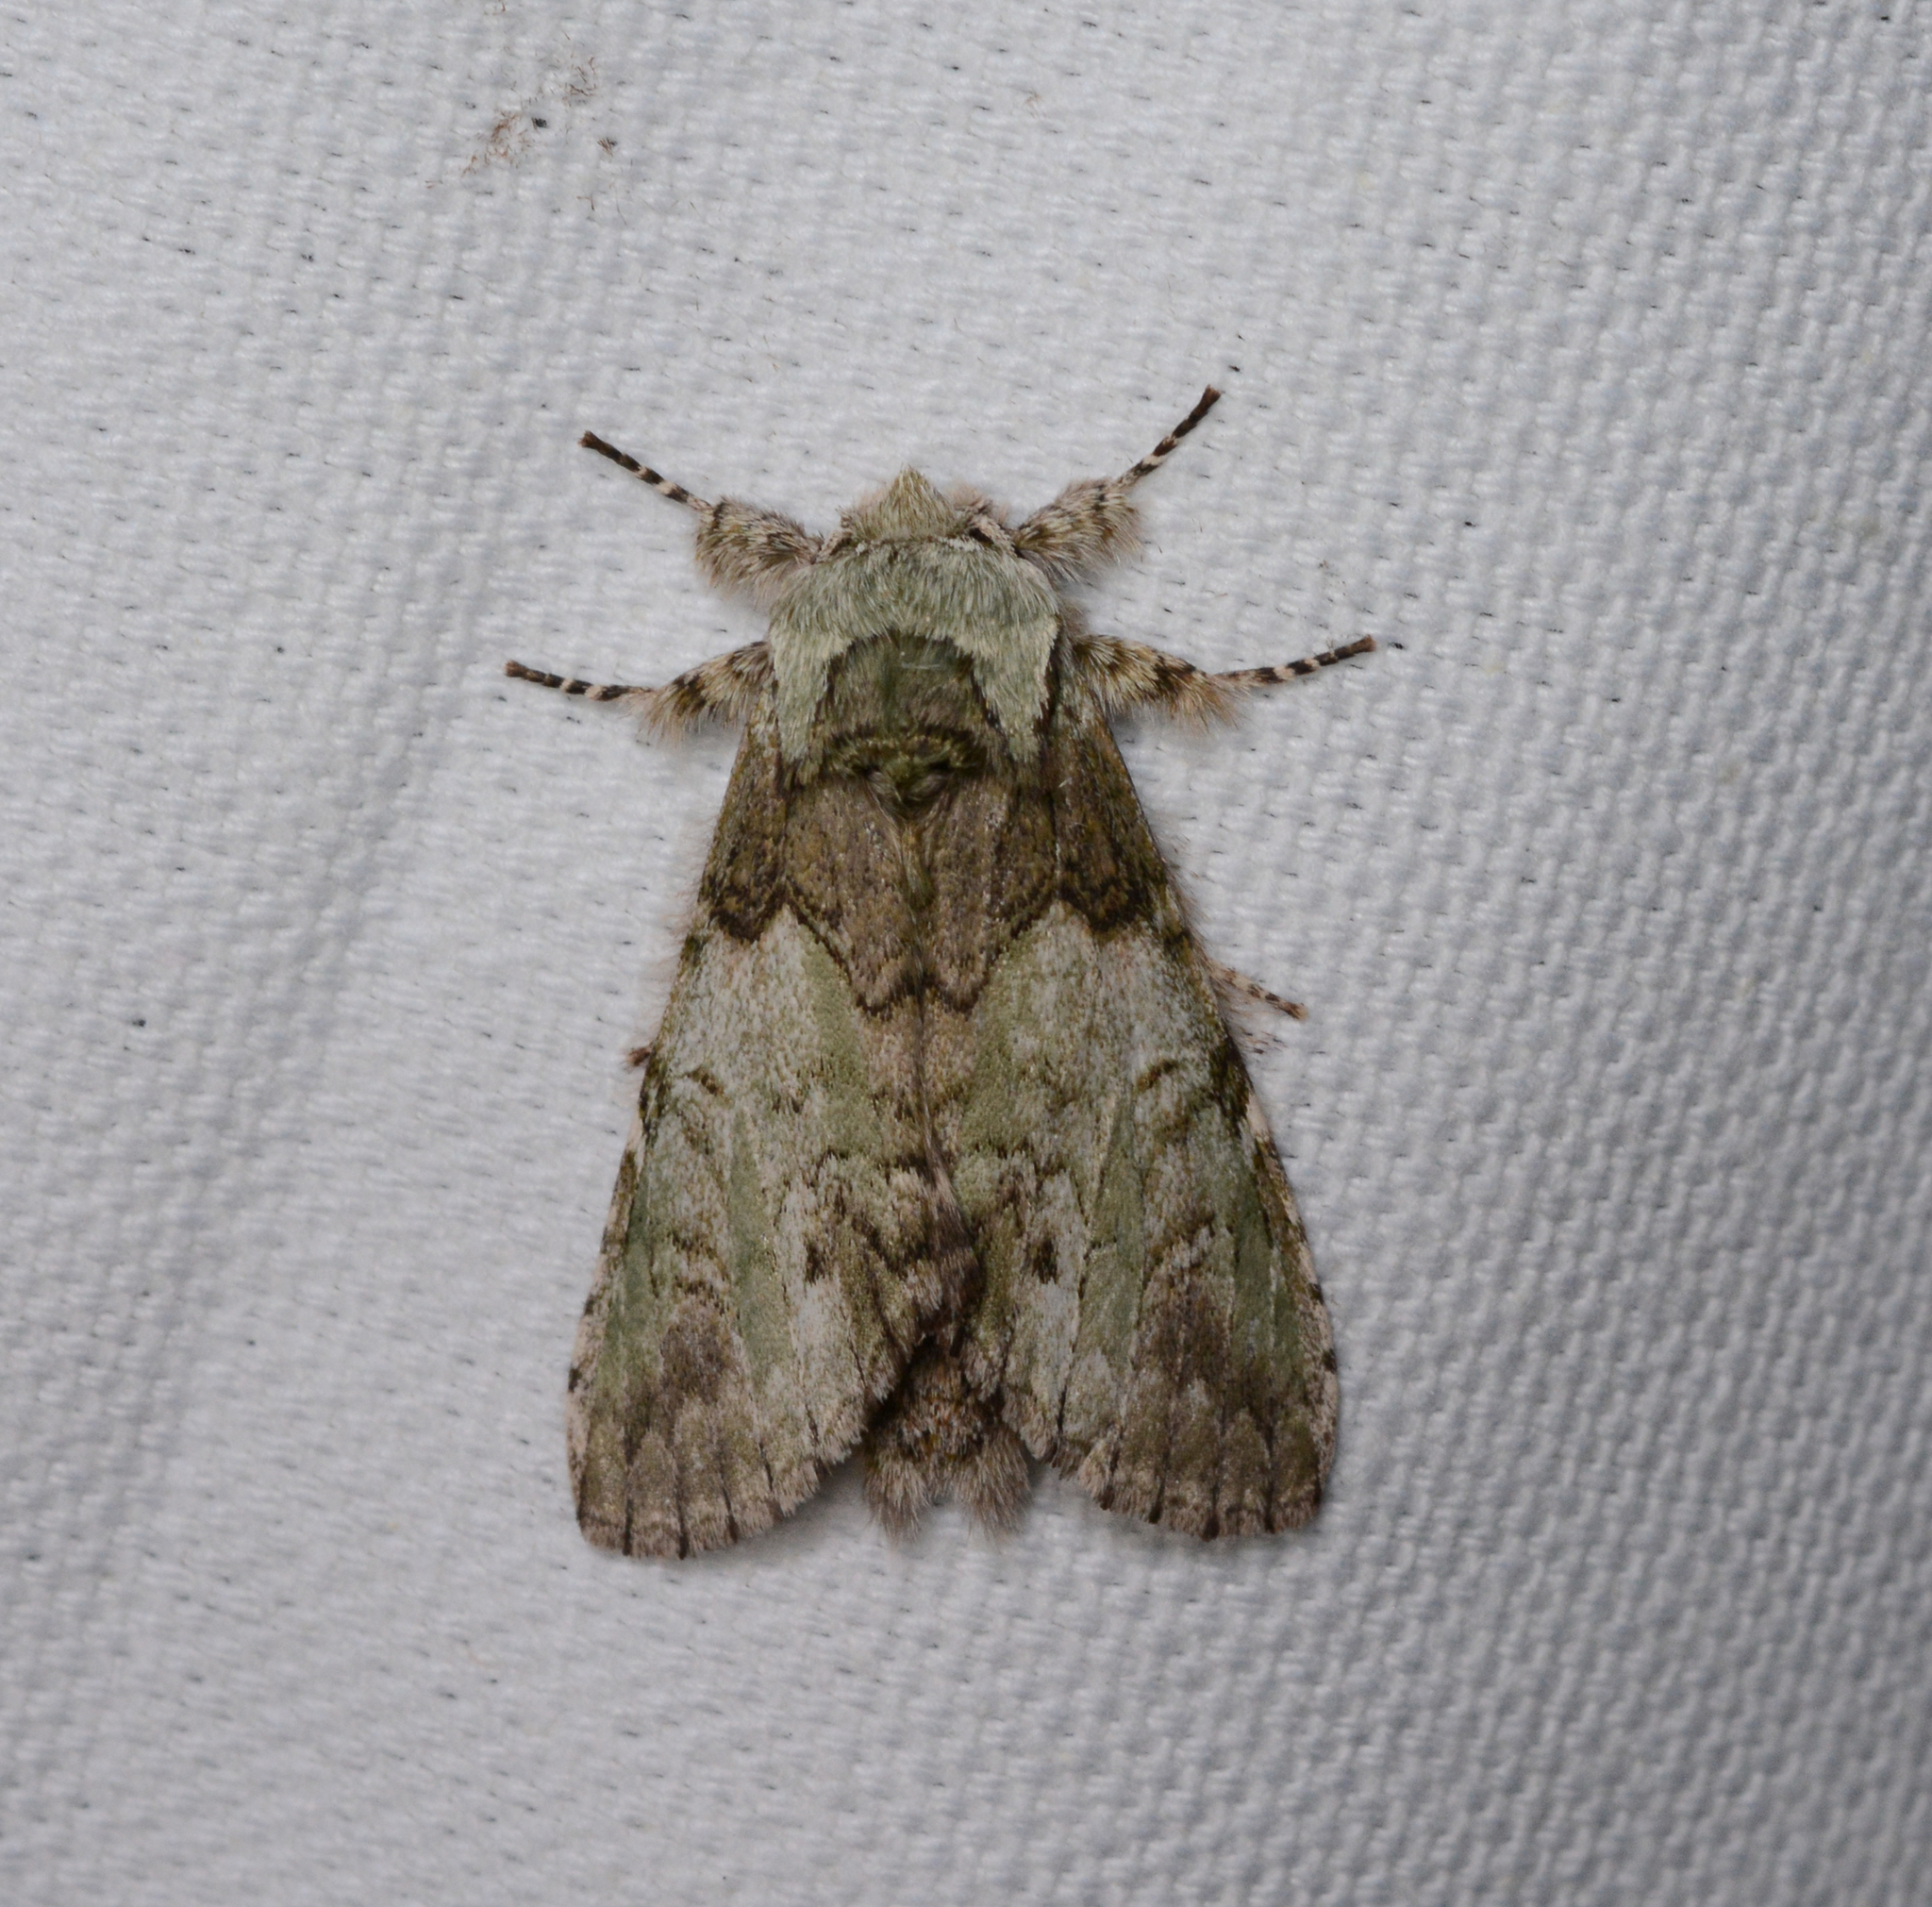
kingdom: Animalia
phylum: Arthropoda
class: Insecta
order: Lepidoptera
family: Notodontidae
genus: Macrurocampa
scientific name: Macrurocampa marthesia
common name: Mottled prominent
